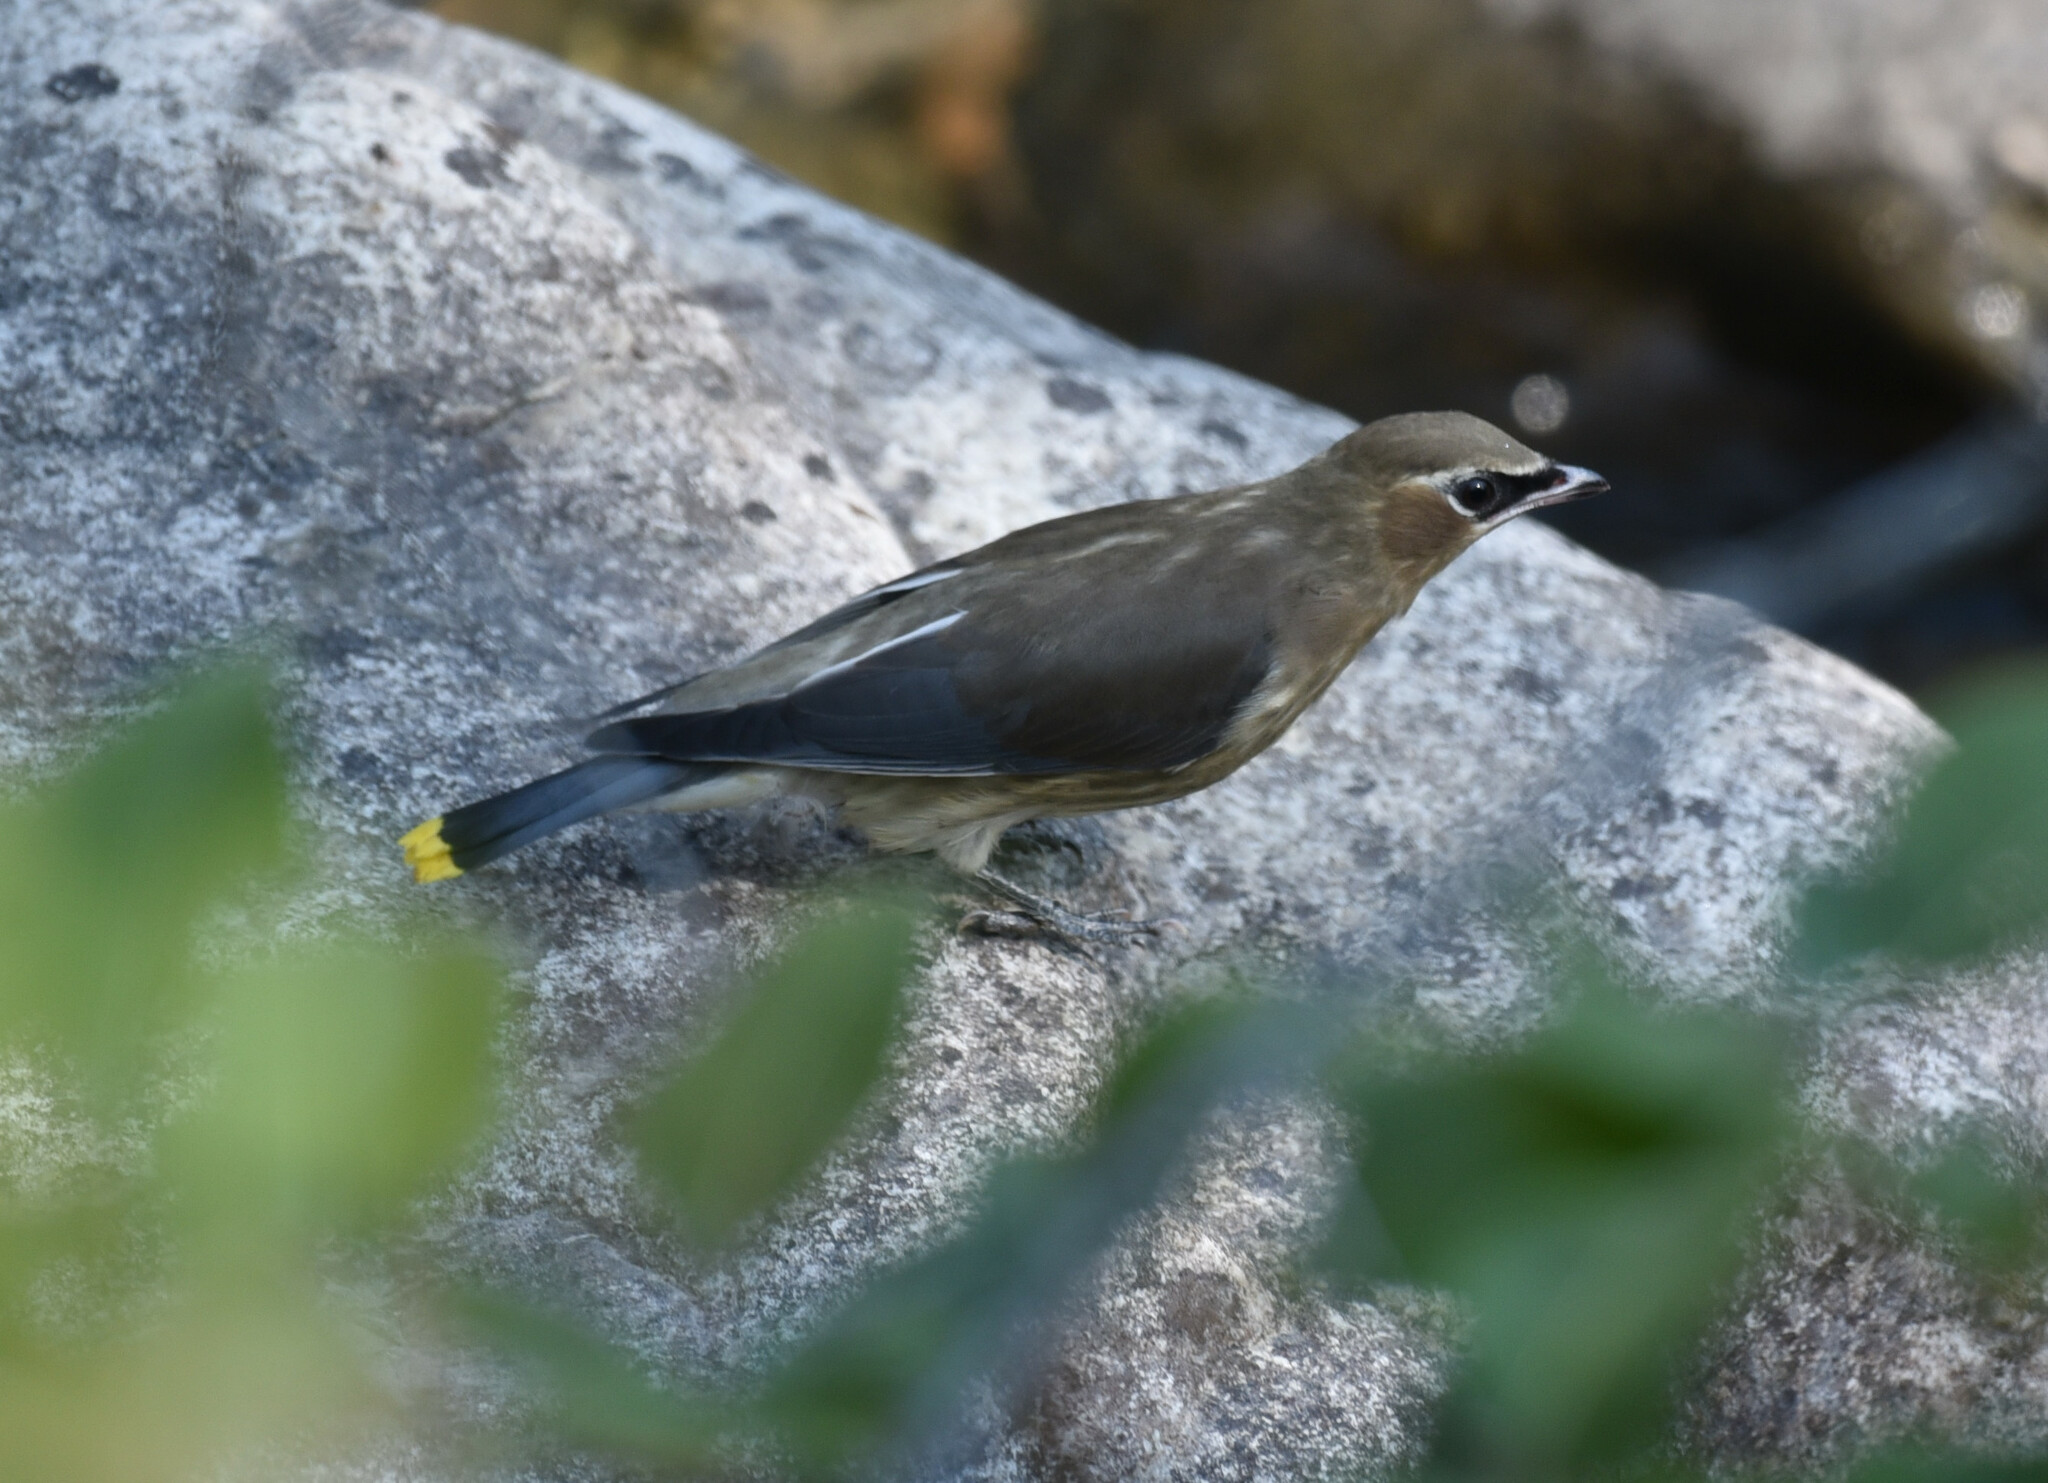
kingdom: Animalia
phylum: Chordata
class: Aves
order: Passeriformes
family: Bombycillidae
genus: Bombycilla
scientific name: Bombycilla cedrorum
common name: Cedar waxwing
